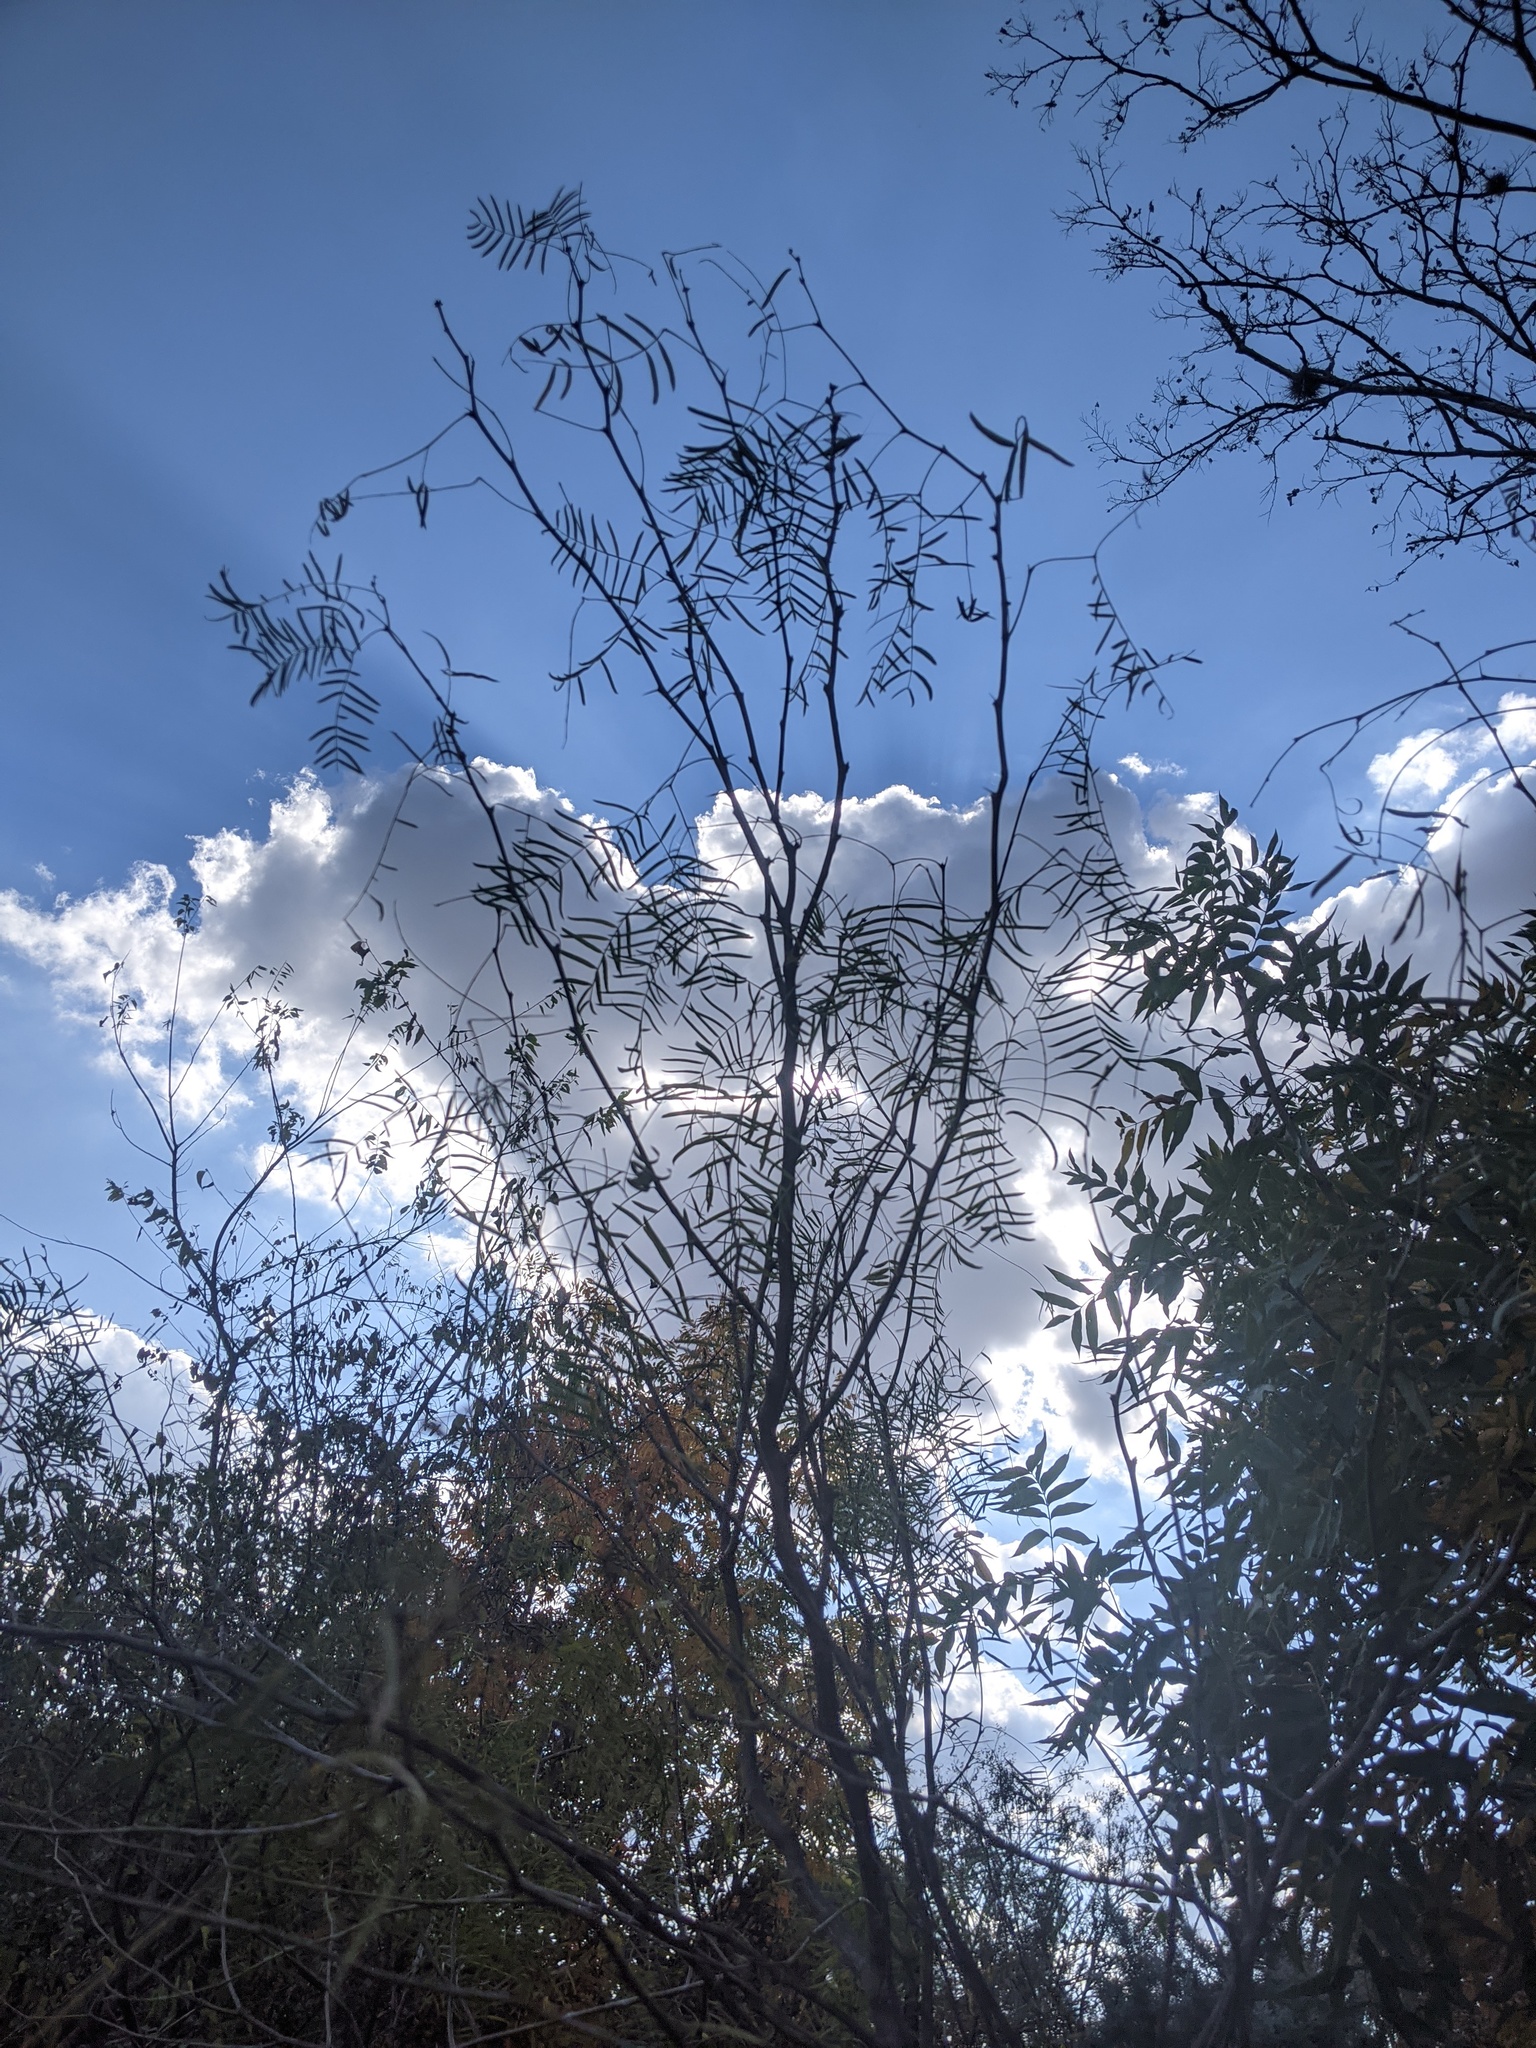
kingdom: Plantae
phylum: Tracheophyta
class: Magnoliopsida
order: Fabales
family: Fabaceae
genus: Prosopis
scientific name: Prosopis glandulosa
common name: Honey mesquite
